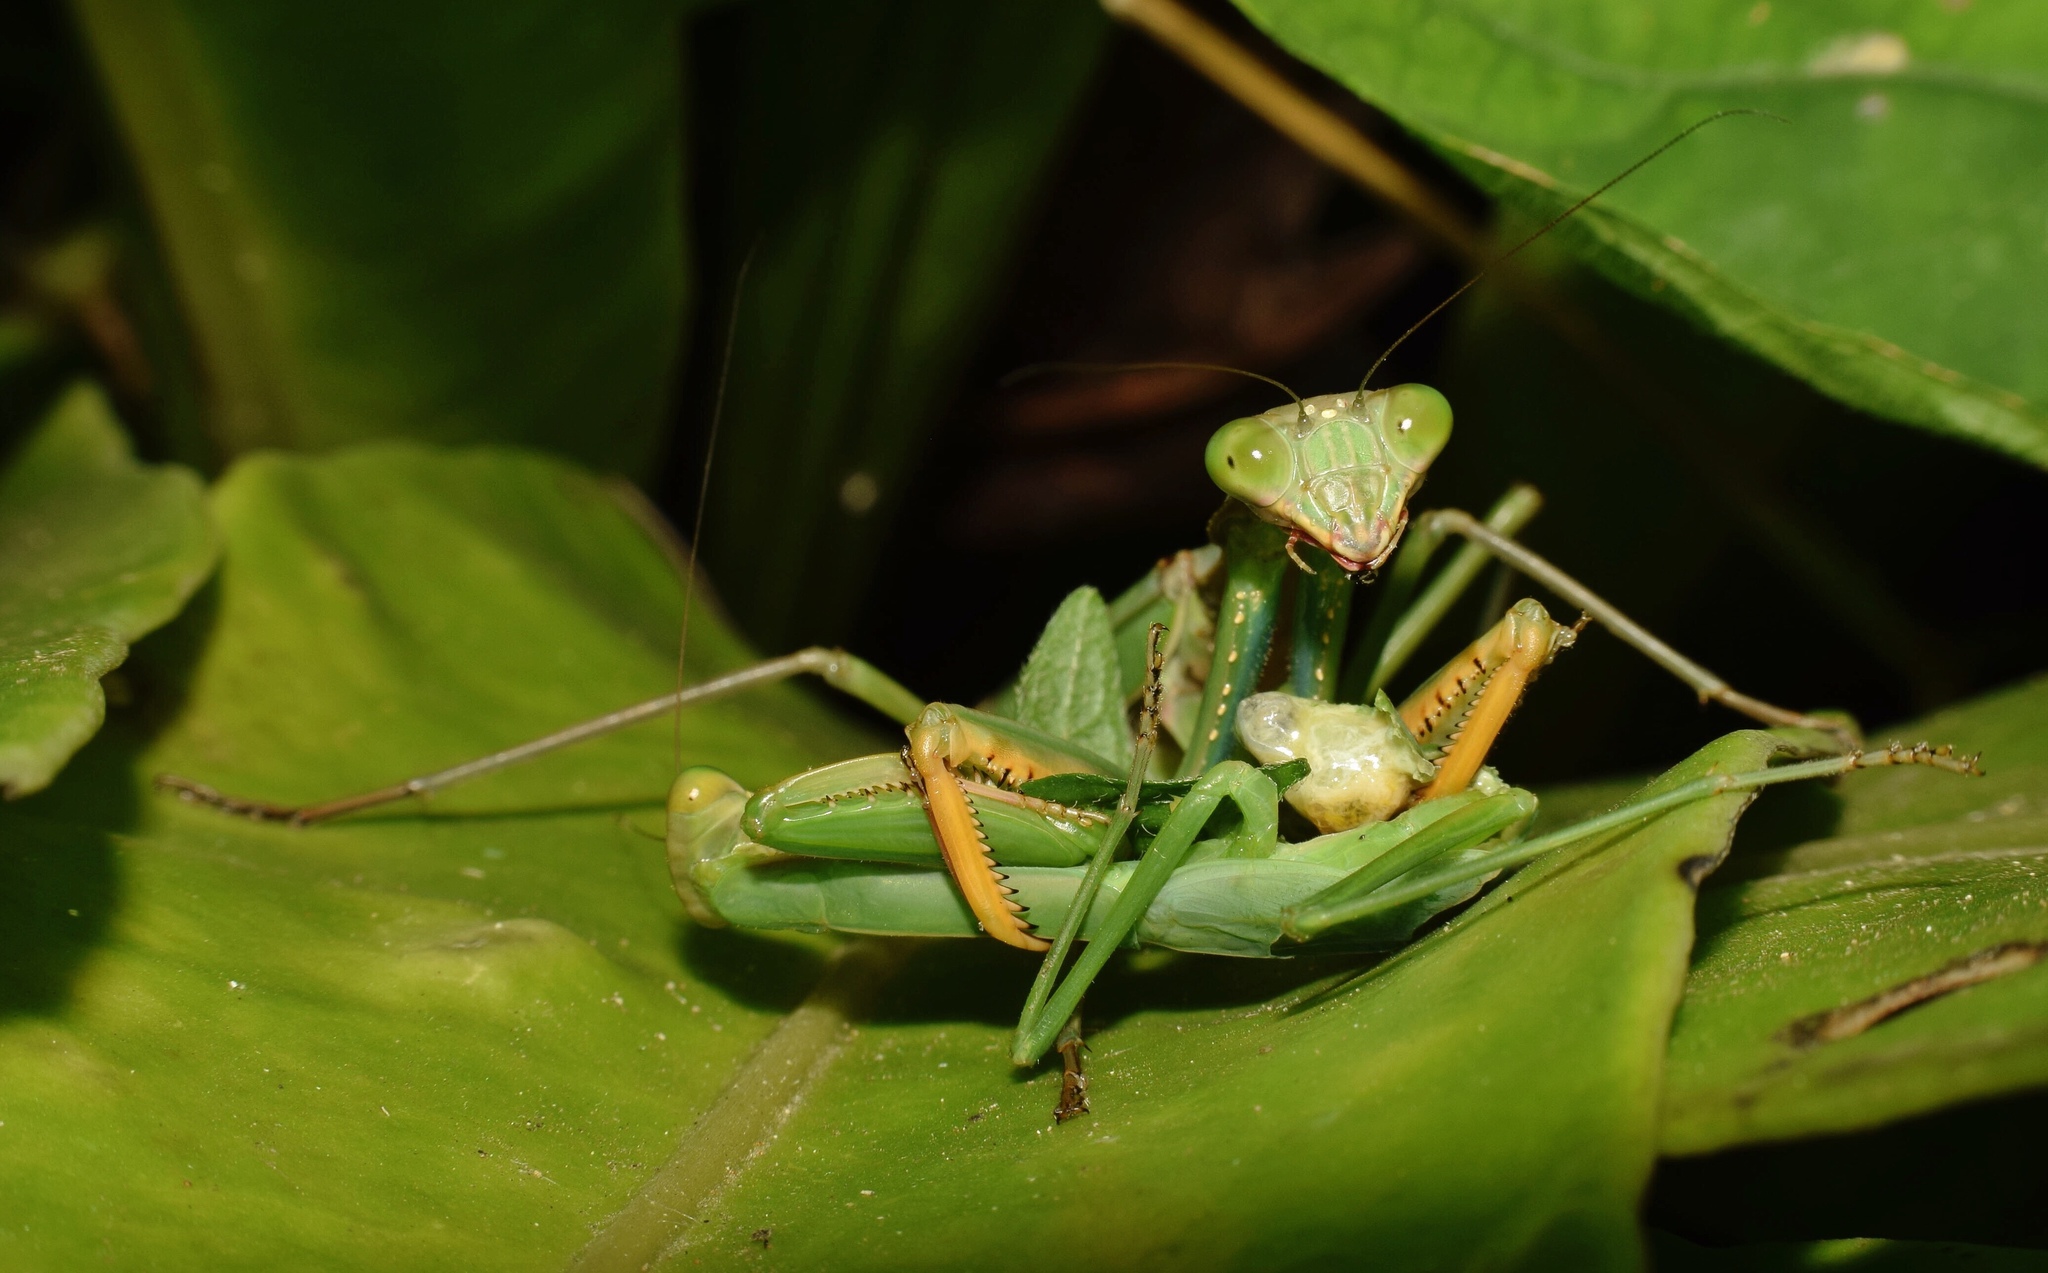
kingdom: Animalia
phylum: Arthropoda
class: Insecta
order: Mantodea
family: Mantidae
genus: Polyspilota
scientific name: Polyspilota aeruginosa
